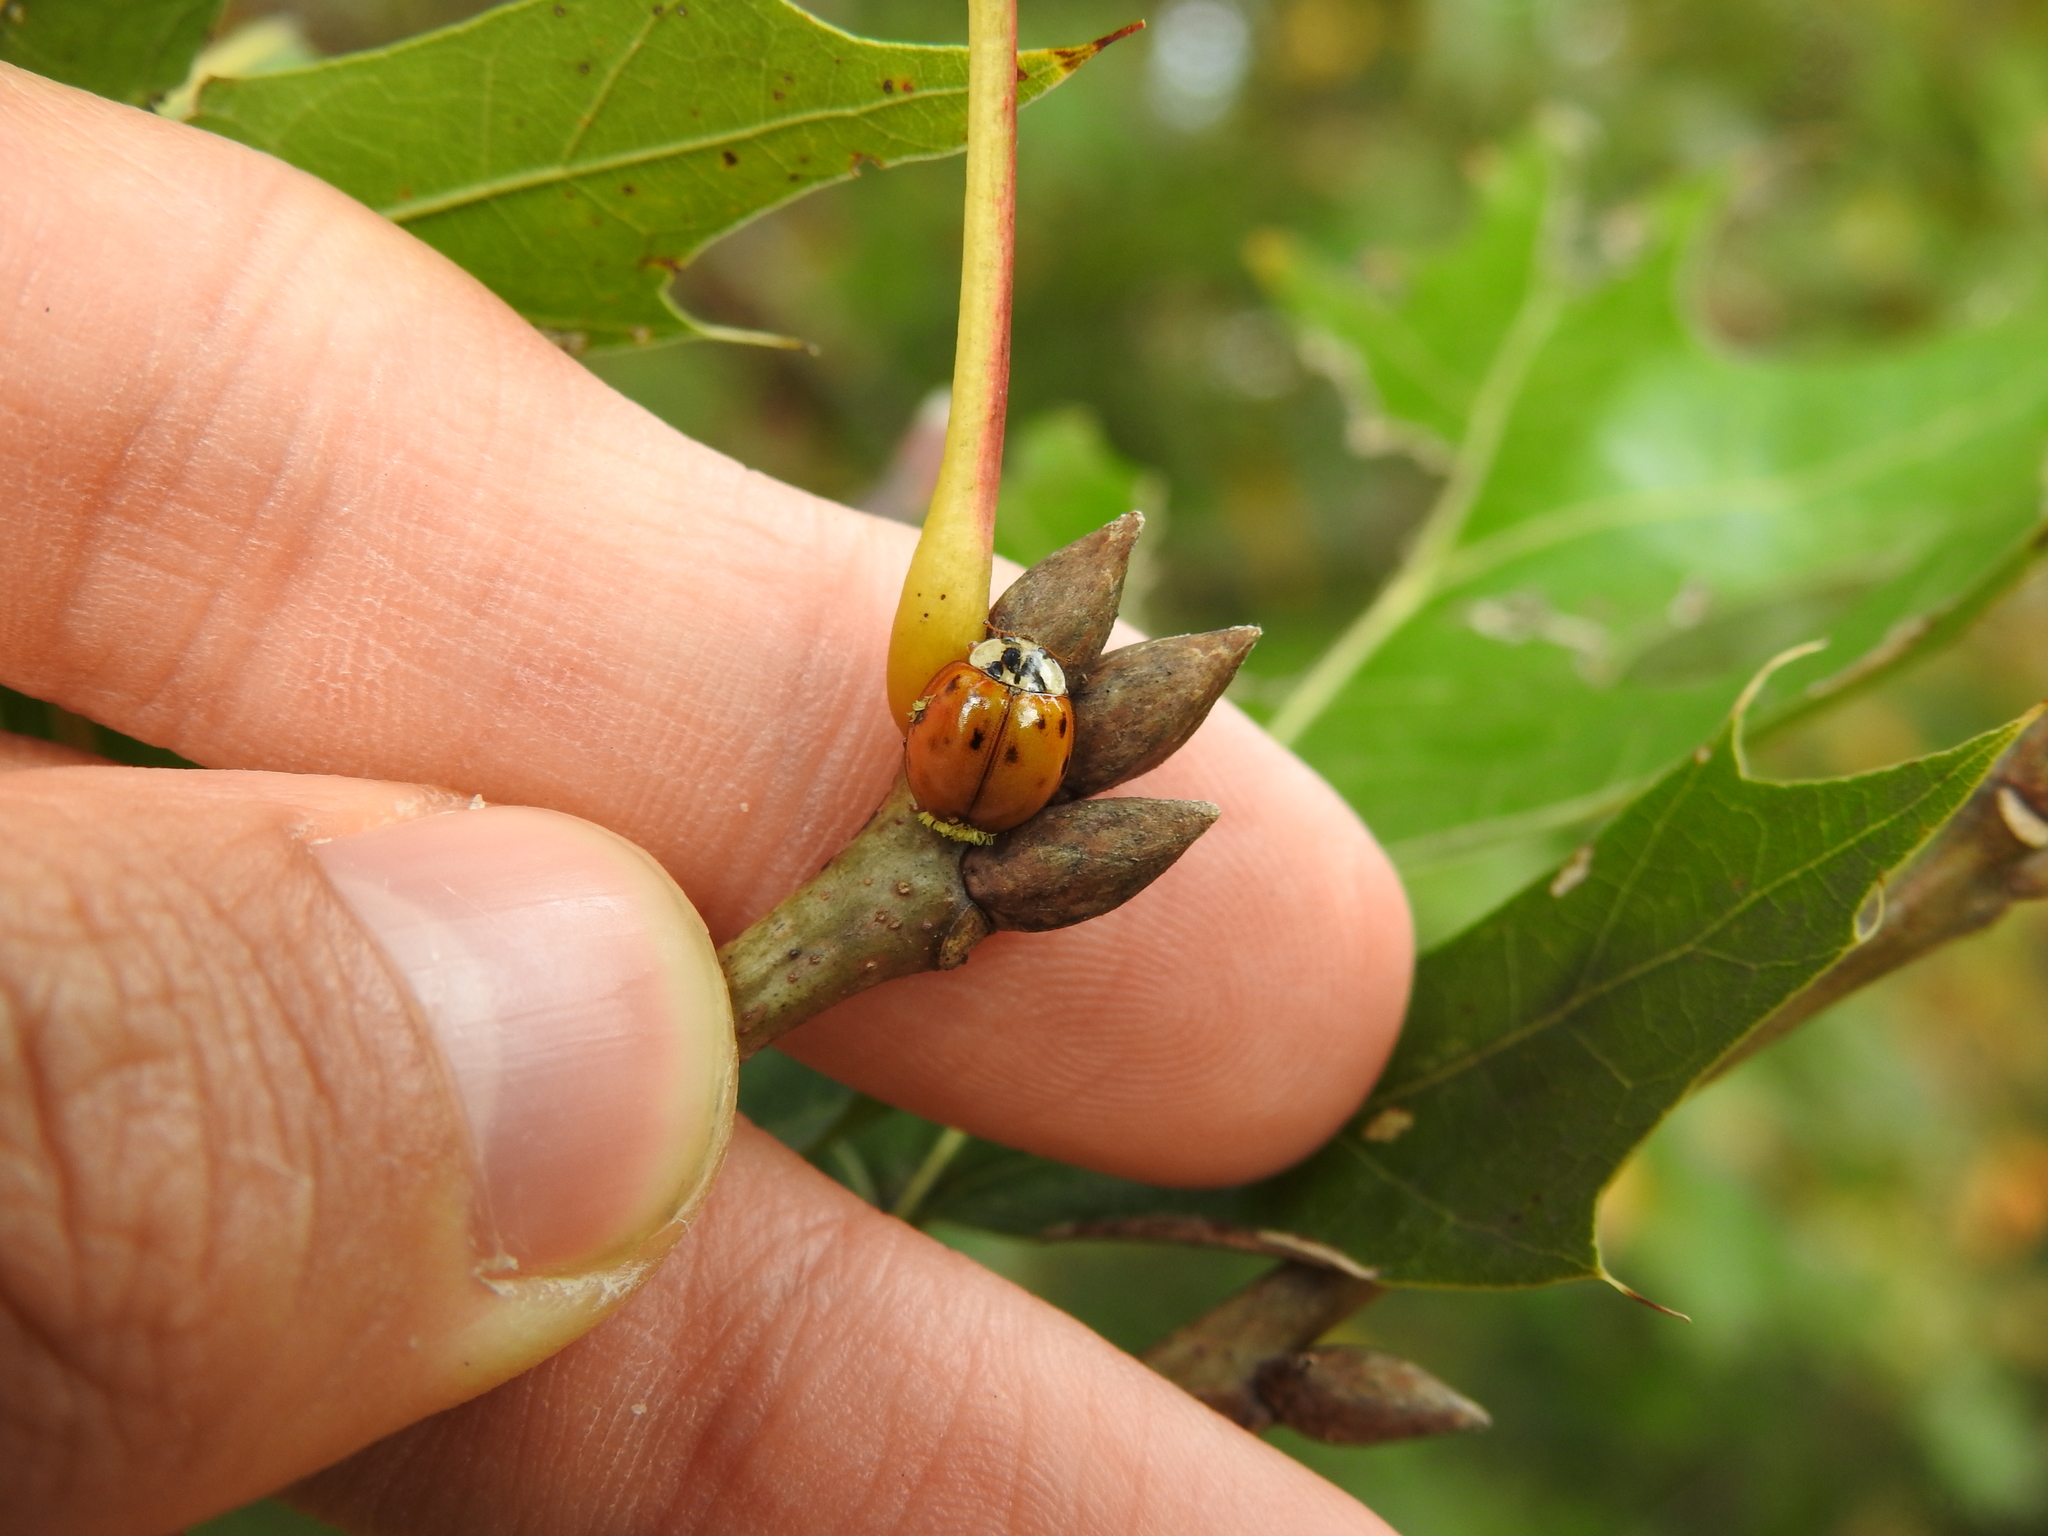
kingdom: Fungi
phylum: Ascomycota
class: Laboulbeniomycetes
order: Laboulbeniales
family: Laboulbeniaceae
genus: Hesperomyces
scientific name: Hesperomyces harmoniae
